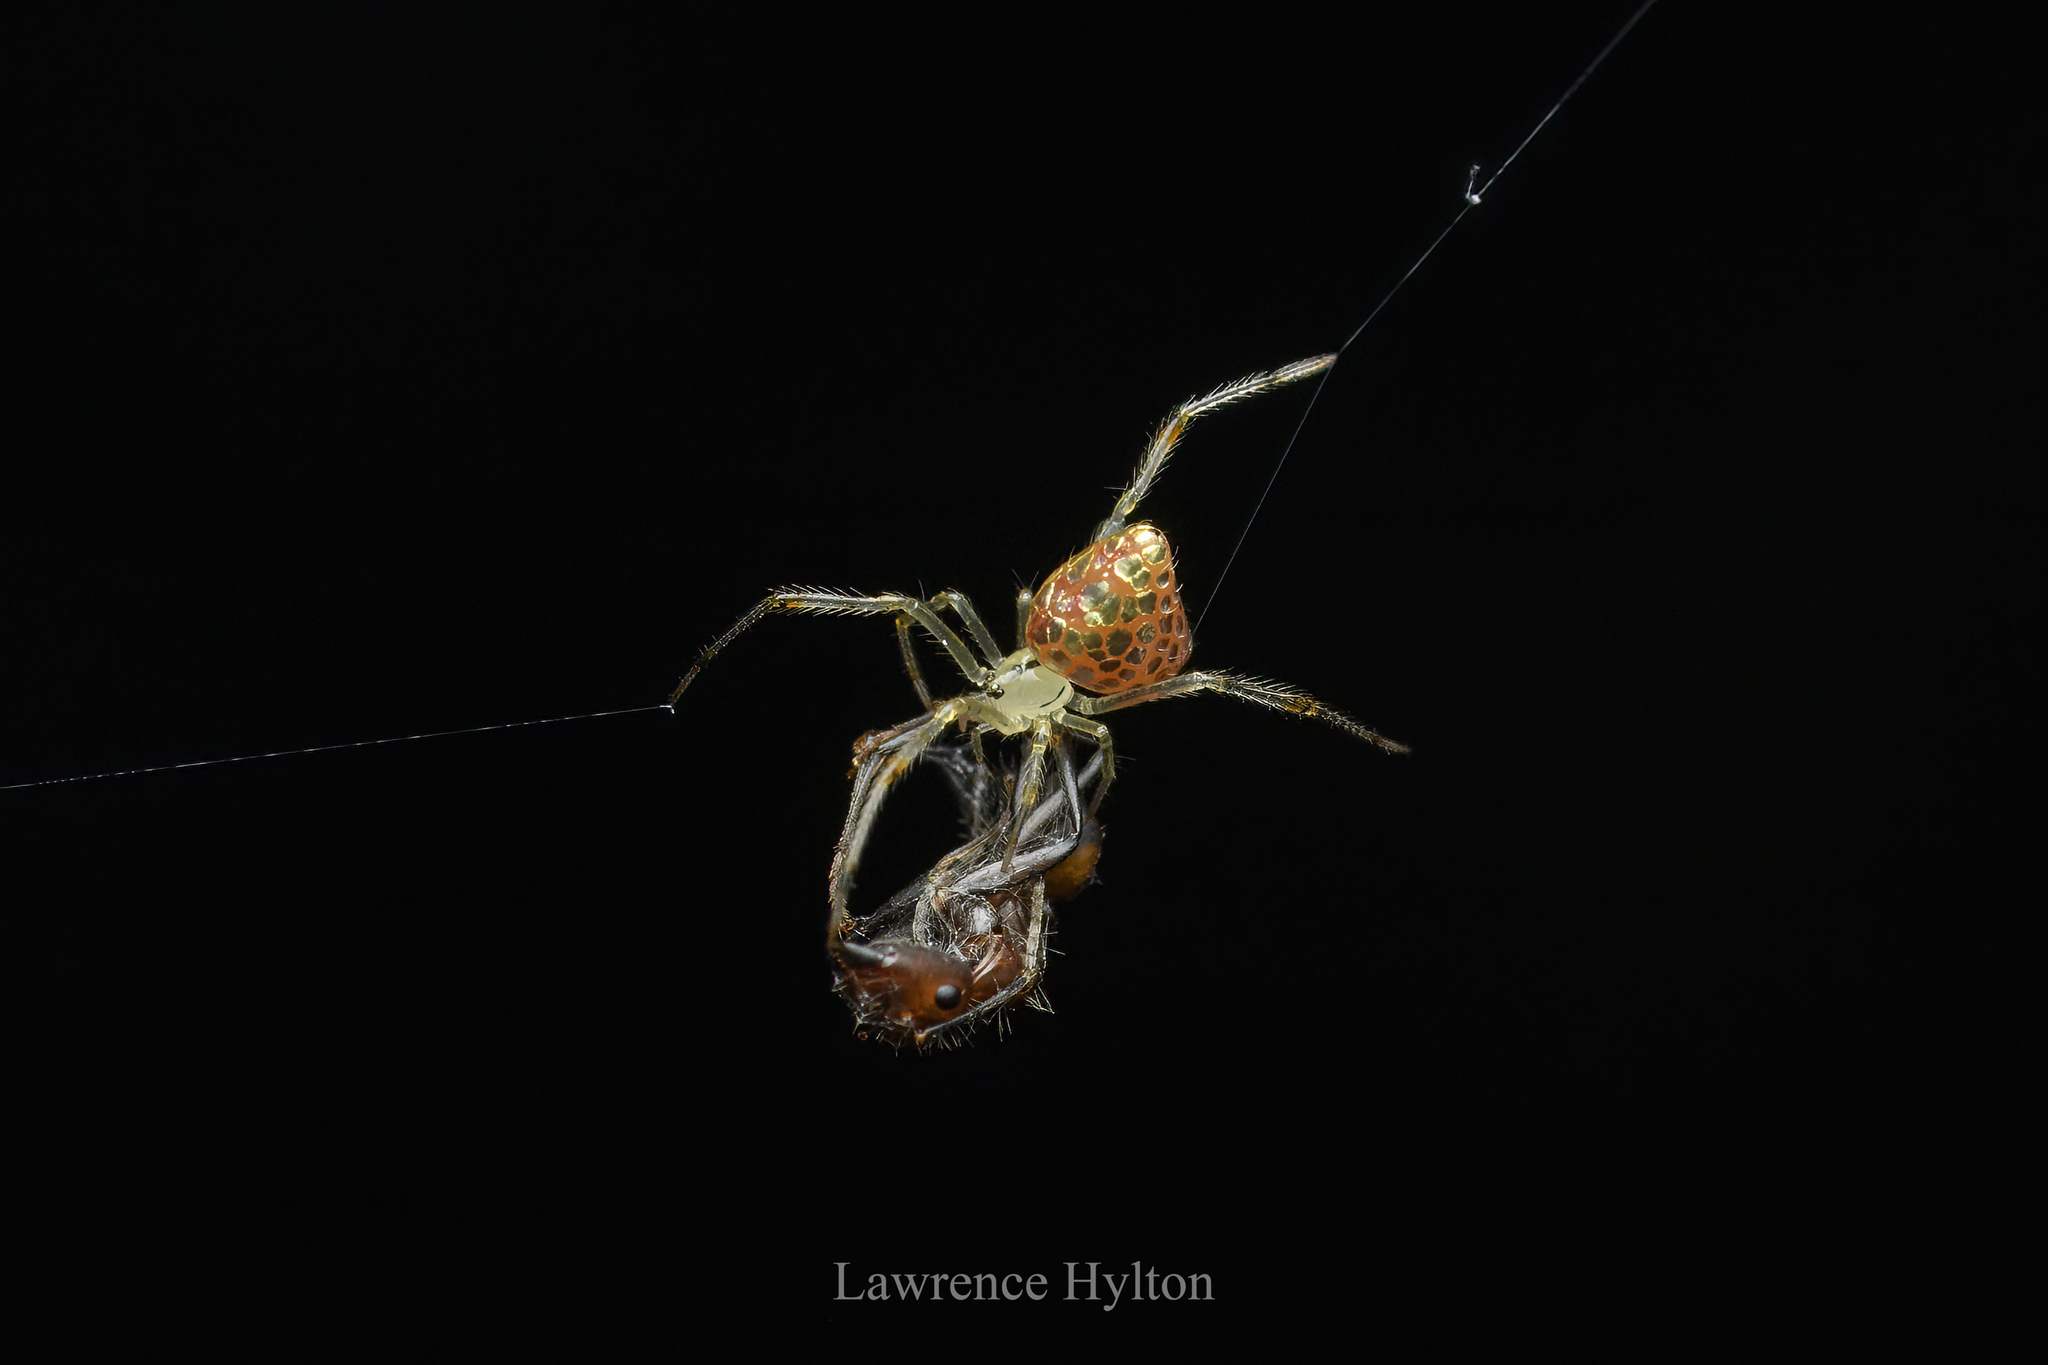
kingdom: Animalia
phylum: Arthropoda
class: Arachnida
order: Araneae
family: Theridiidae
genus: Thwaitesia
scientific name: Thwaitesia margaritifera
